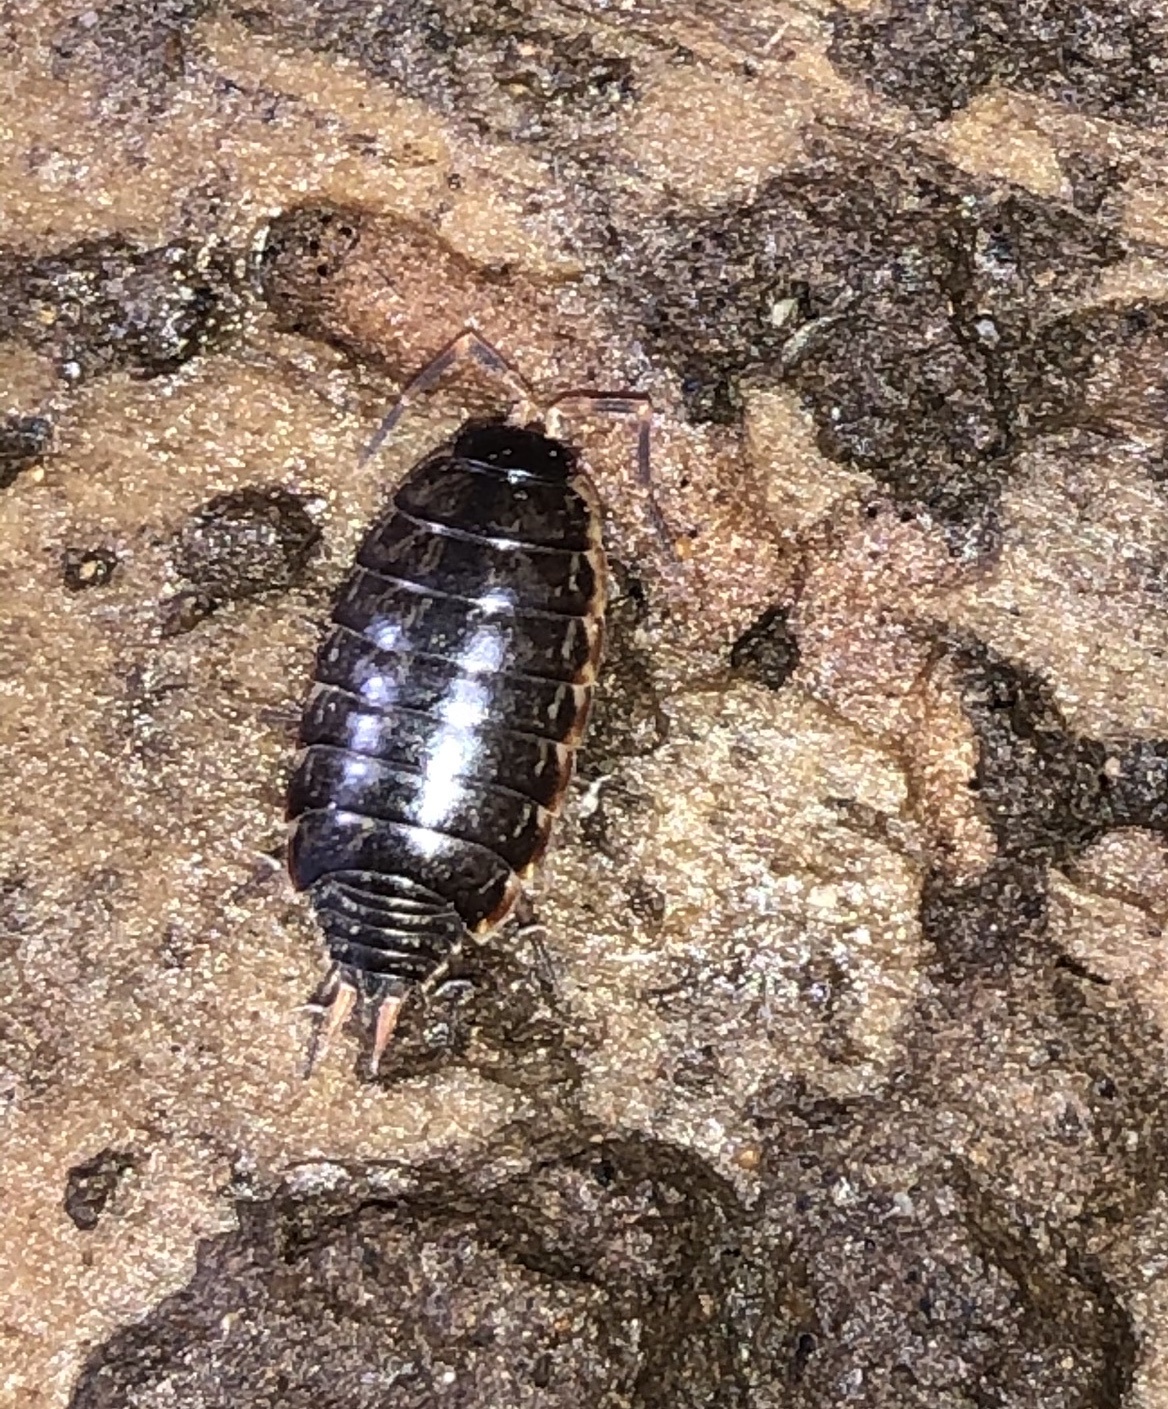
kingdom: Animalia
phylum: Arthropoda
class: Malacostraca
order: Isopoda
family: Philosciidae
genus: Philoscia
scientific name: Philoscia muscorum
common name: Common striped woodlouse
